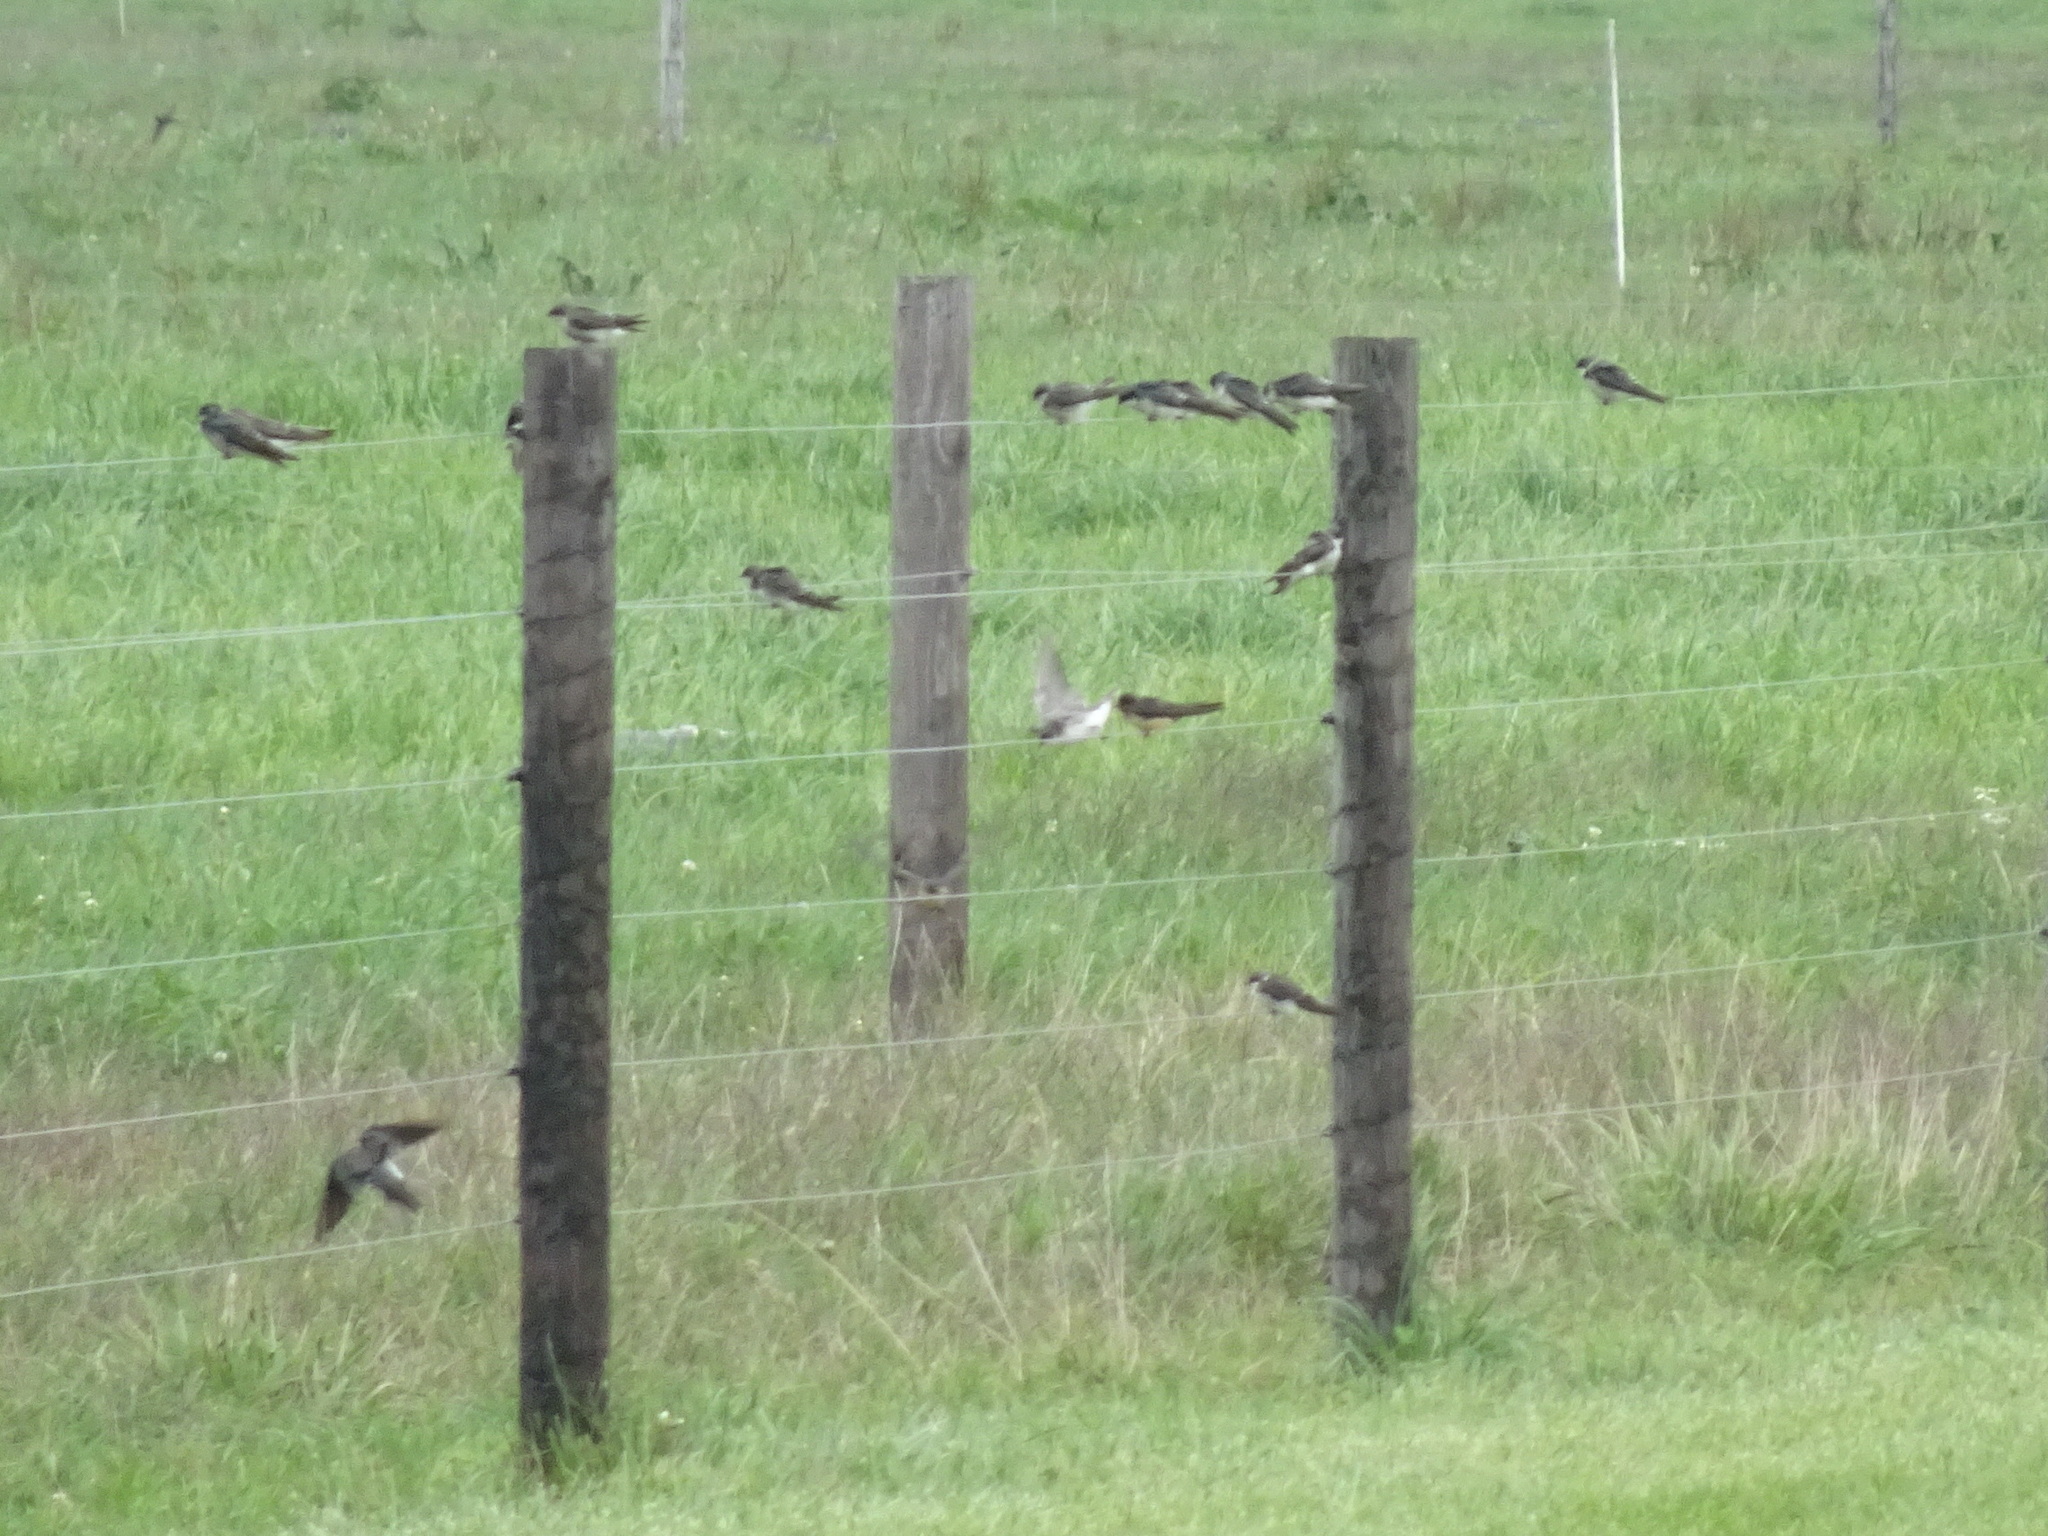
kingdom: Animalia
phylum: Chordata
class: Aves
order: Passeriformes
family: Hirundinidae
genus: Tachycineta
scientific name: Tachycineta bicolor
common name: Tree swallow
